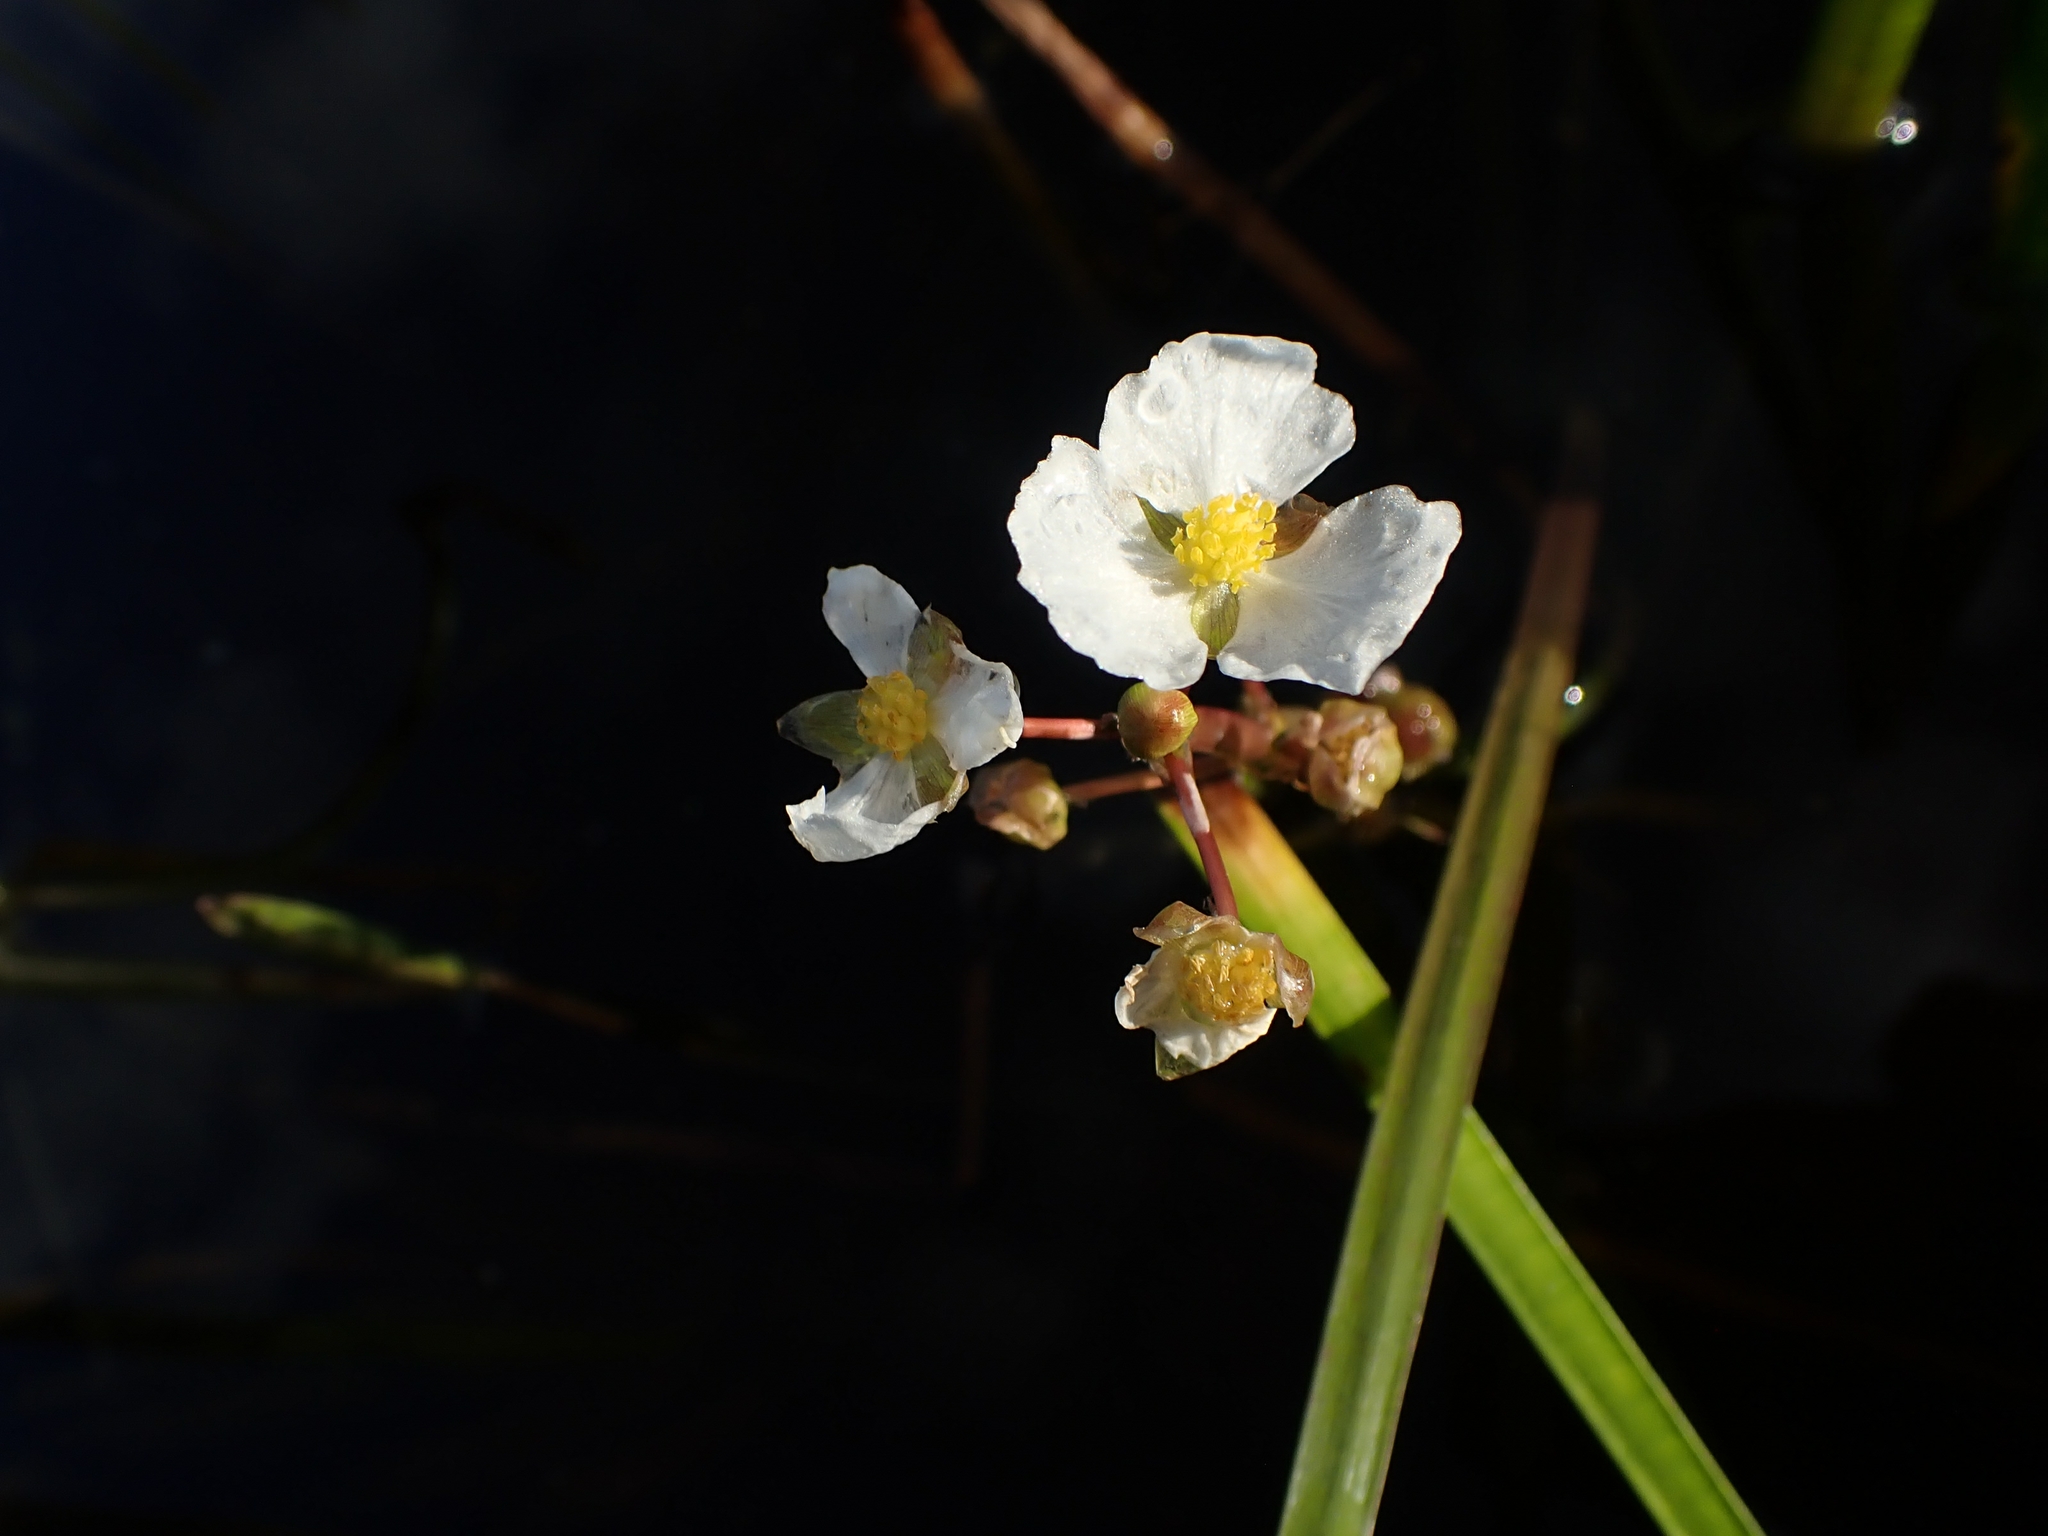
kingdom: Plantae
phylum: Tracheophyta
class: Liliopsida
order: Alismatales
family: Alismataceae
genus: Sagittaria
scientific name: Sagittaria rigida
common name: Canadian arrowhead
